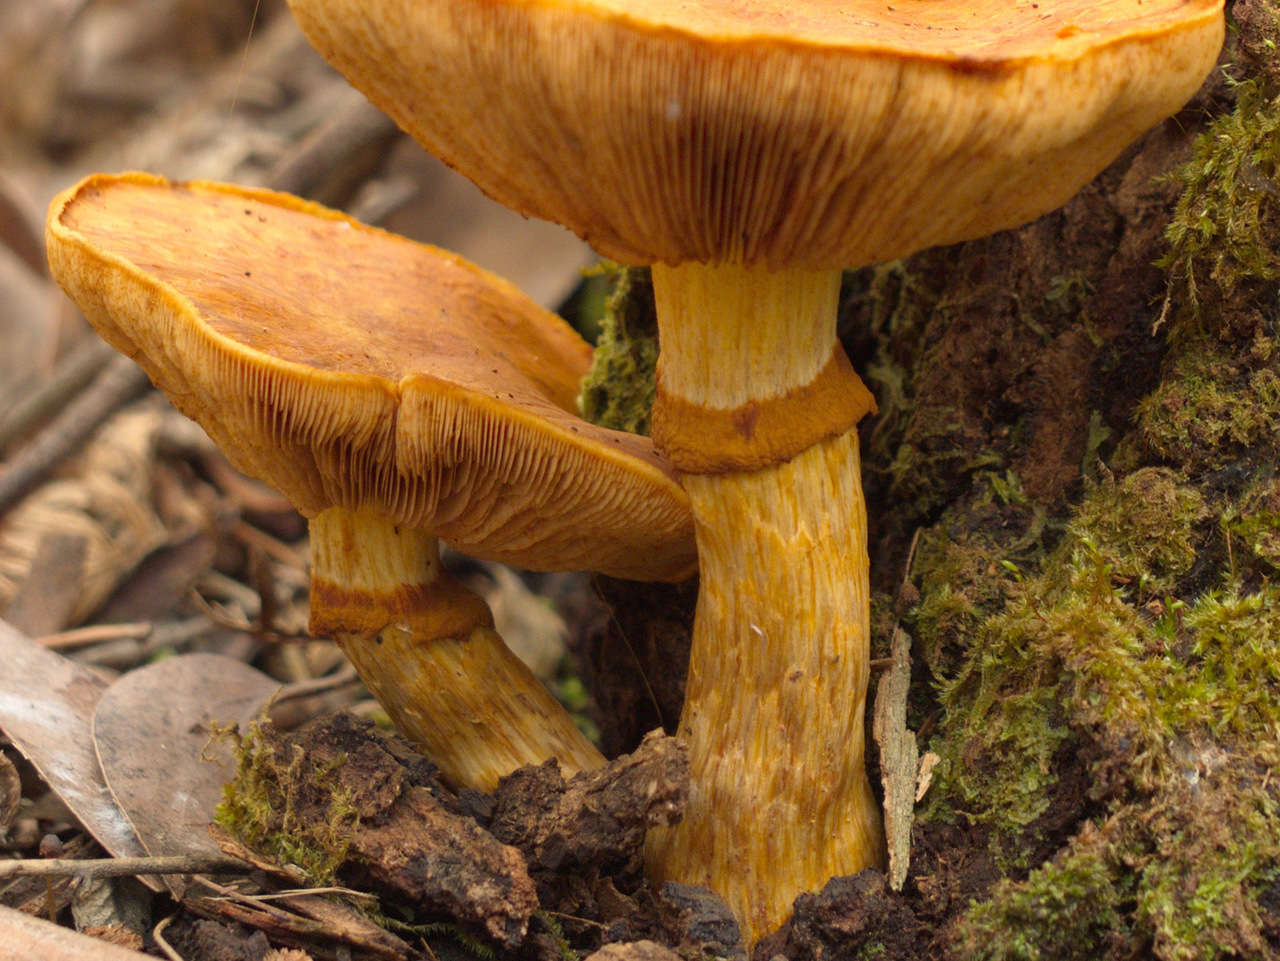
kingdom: Fungi
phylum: Basidiomycota
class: Agaricomycetes
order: Agaricales
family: Hymenogastraceae
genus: Gymnopilus
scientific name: Gymnopilus junonius
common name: Spectacular rustgill
